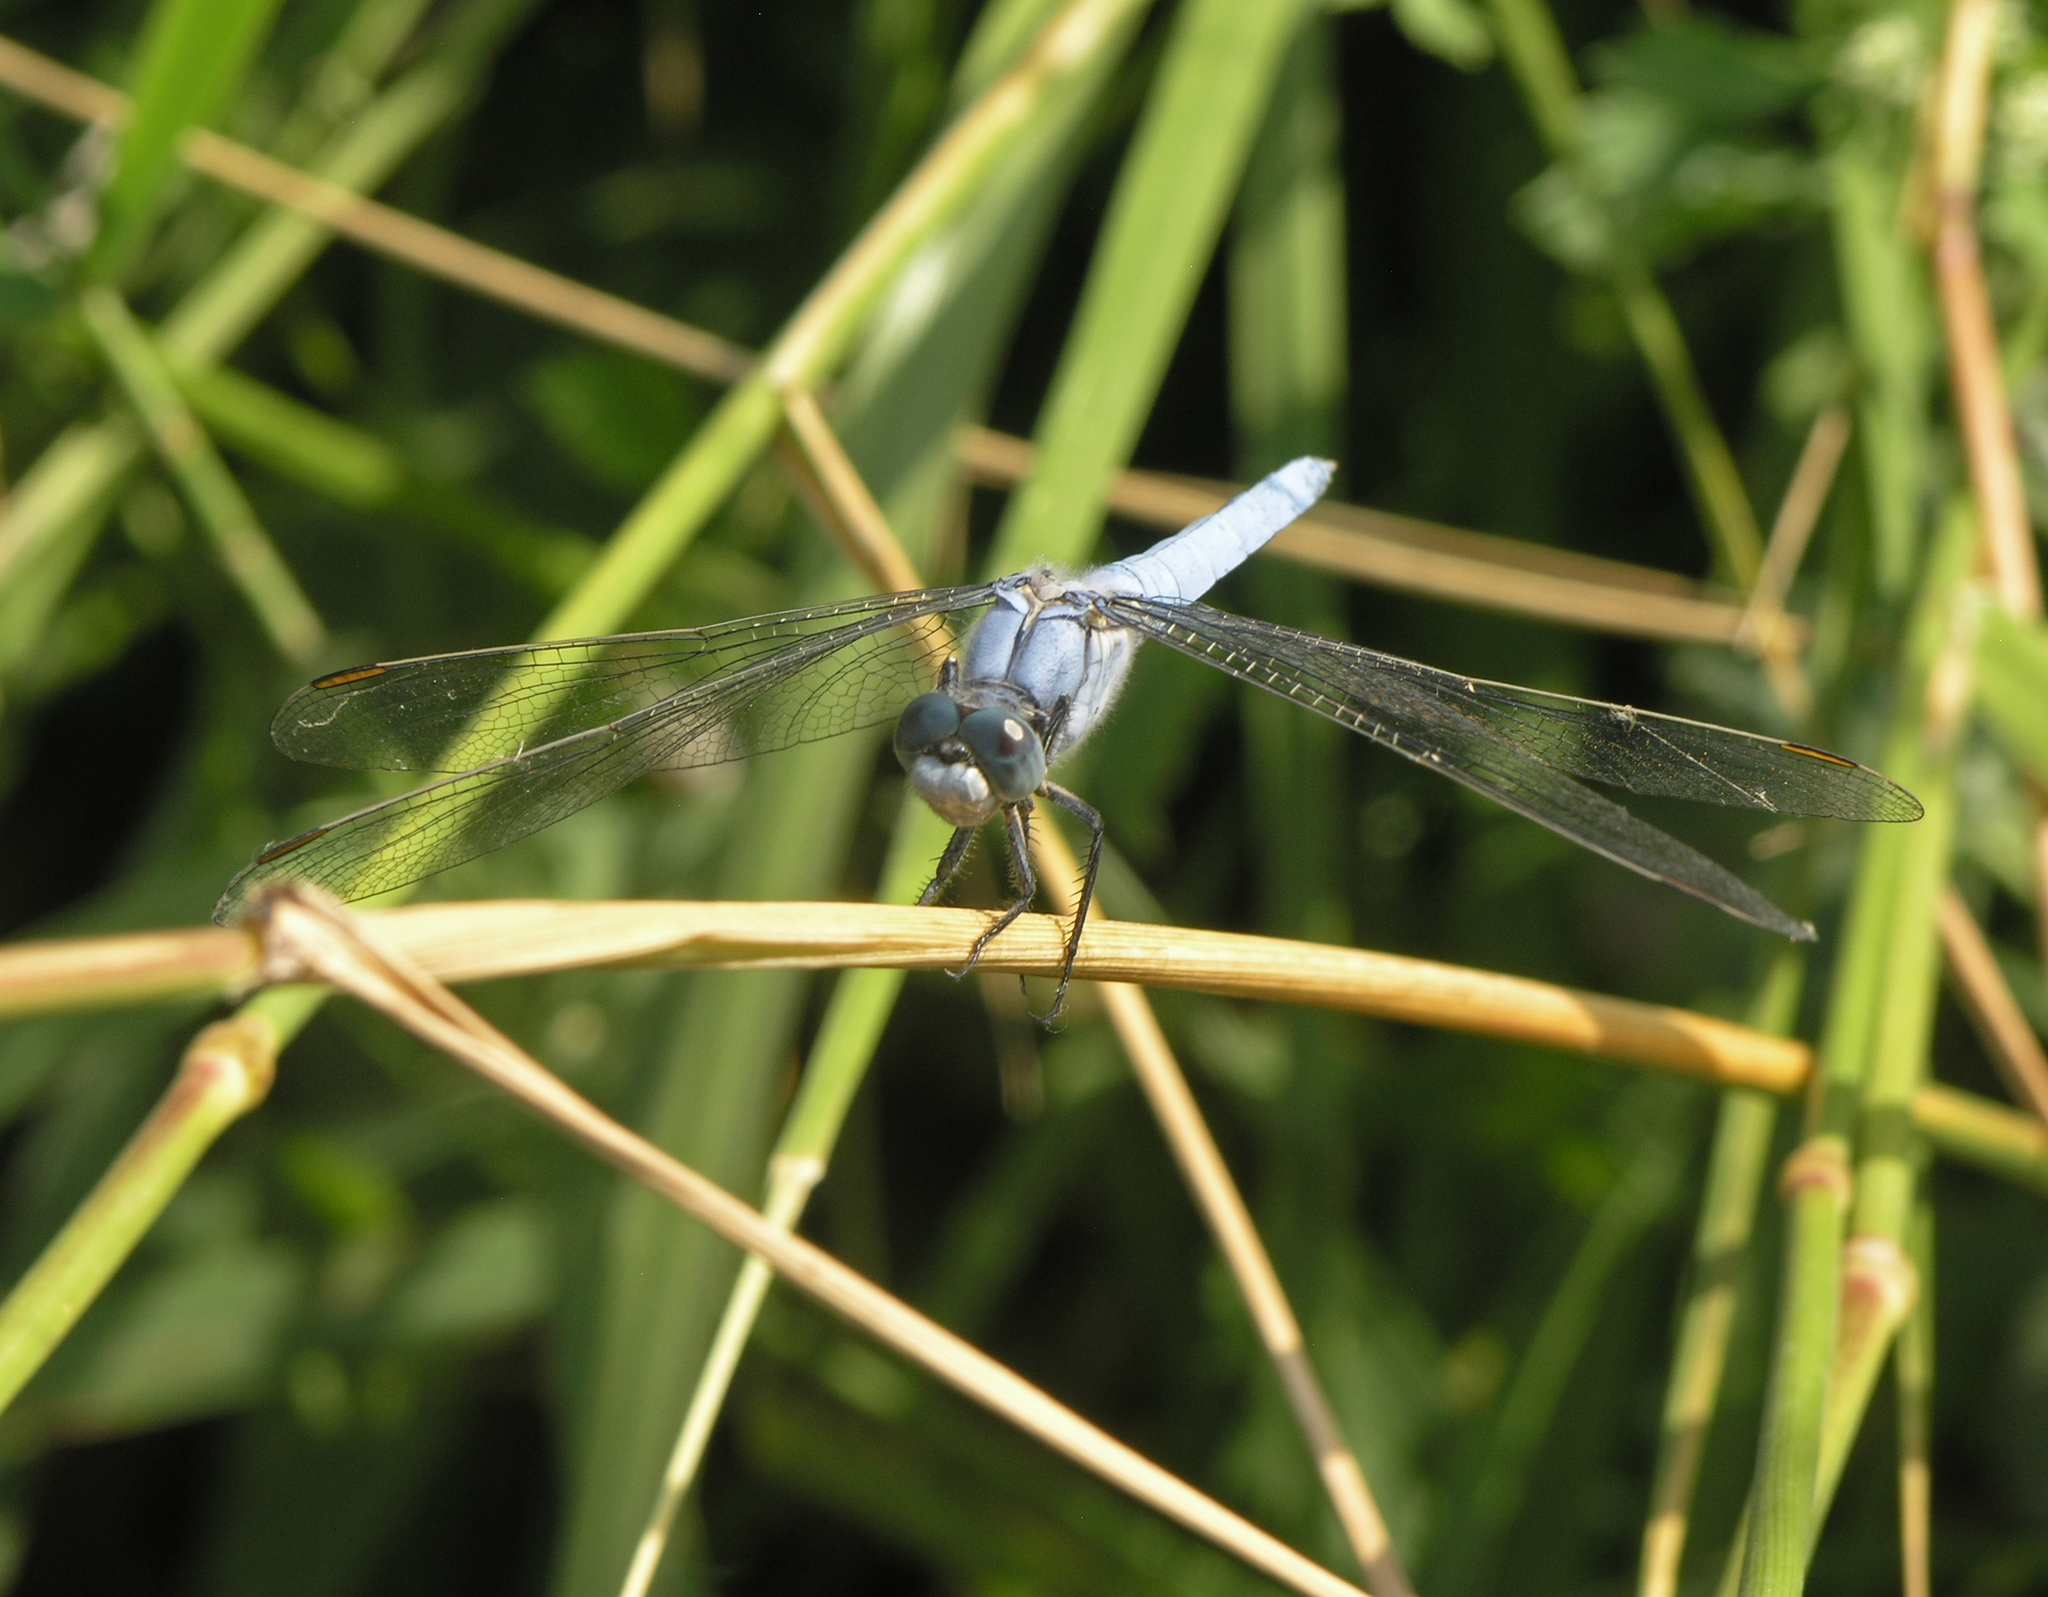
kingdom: Animalia
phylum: Arthropoda
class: Insecta
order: Odonata
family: Libellulidae
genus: Orthetrum
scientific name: Orthetrum brunneum
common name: Southern skimmer
